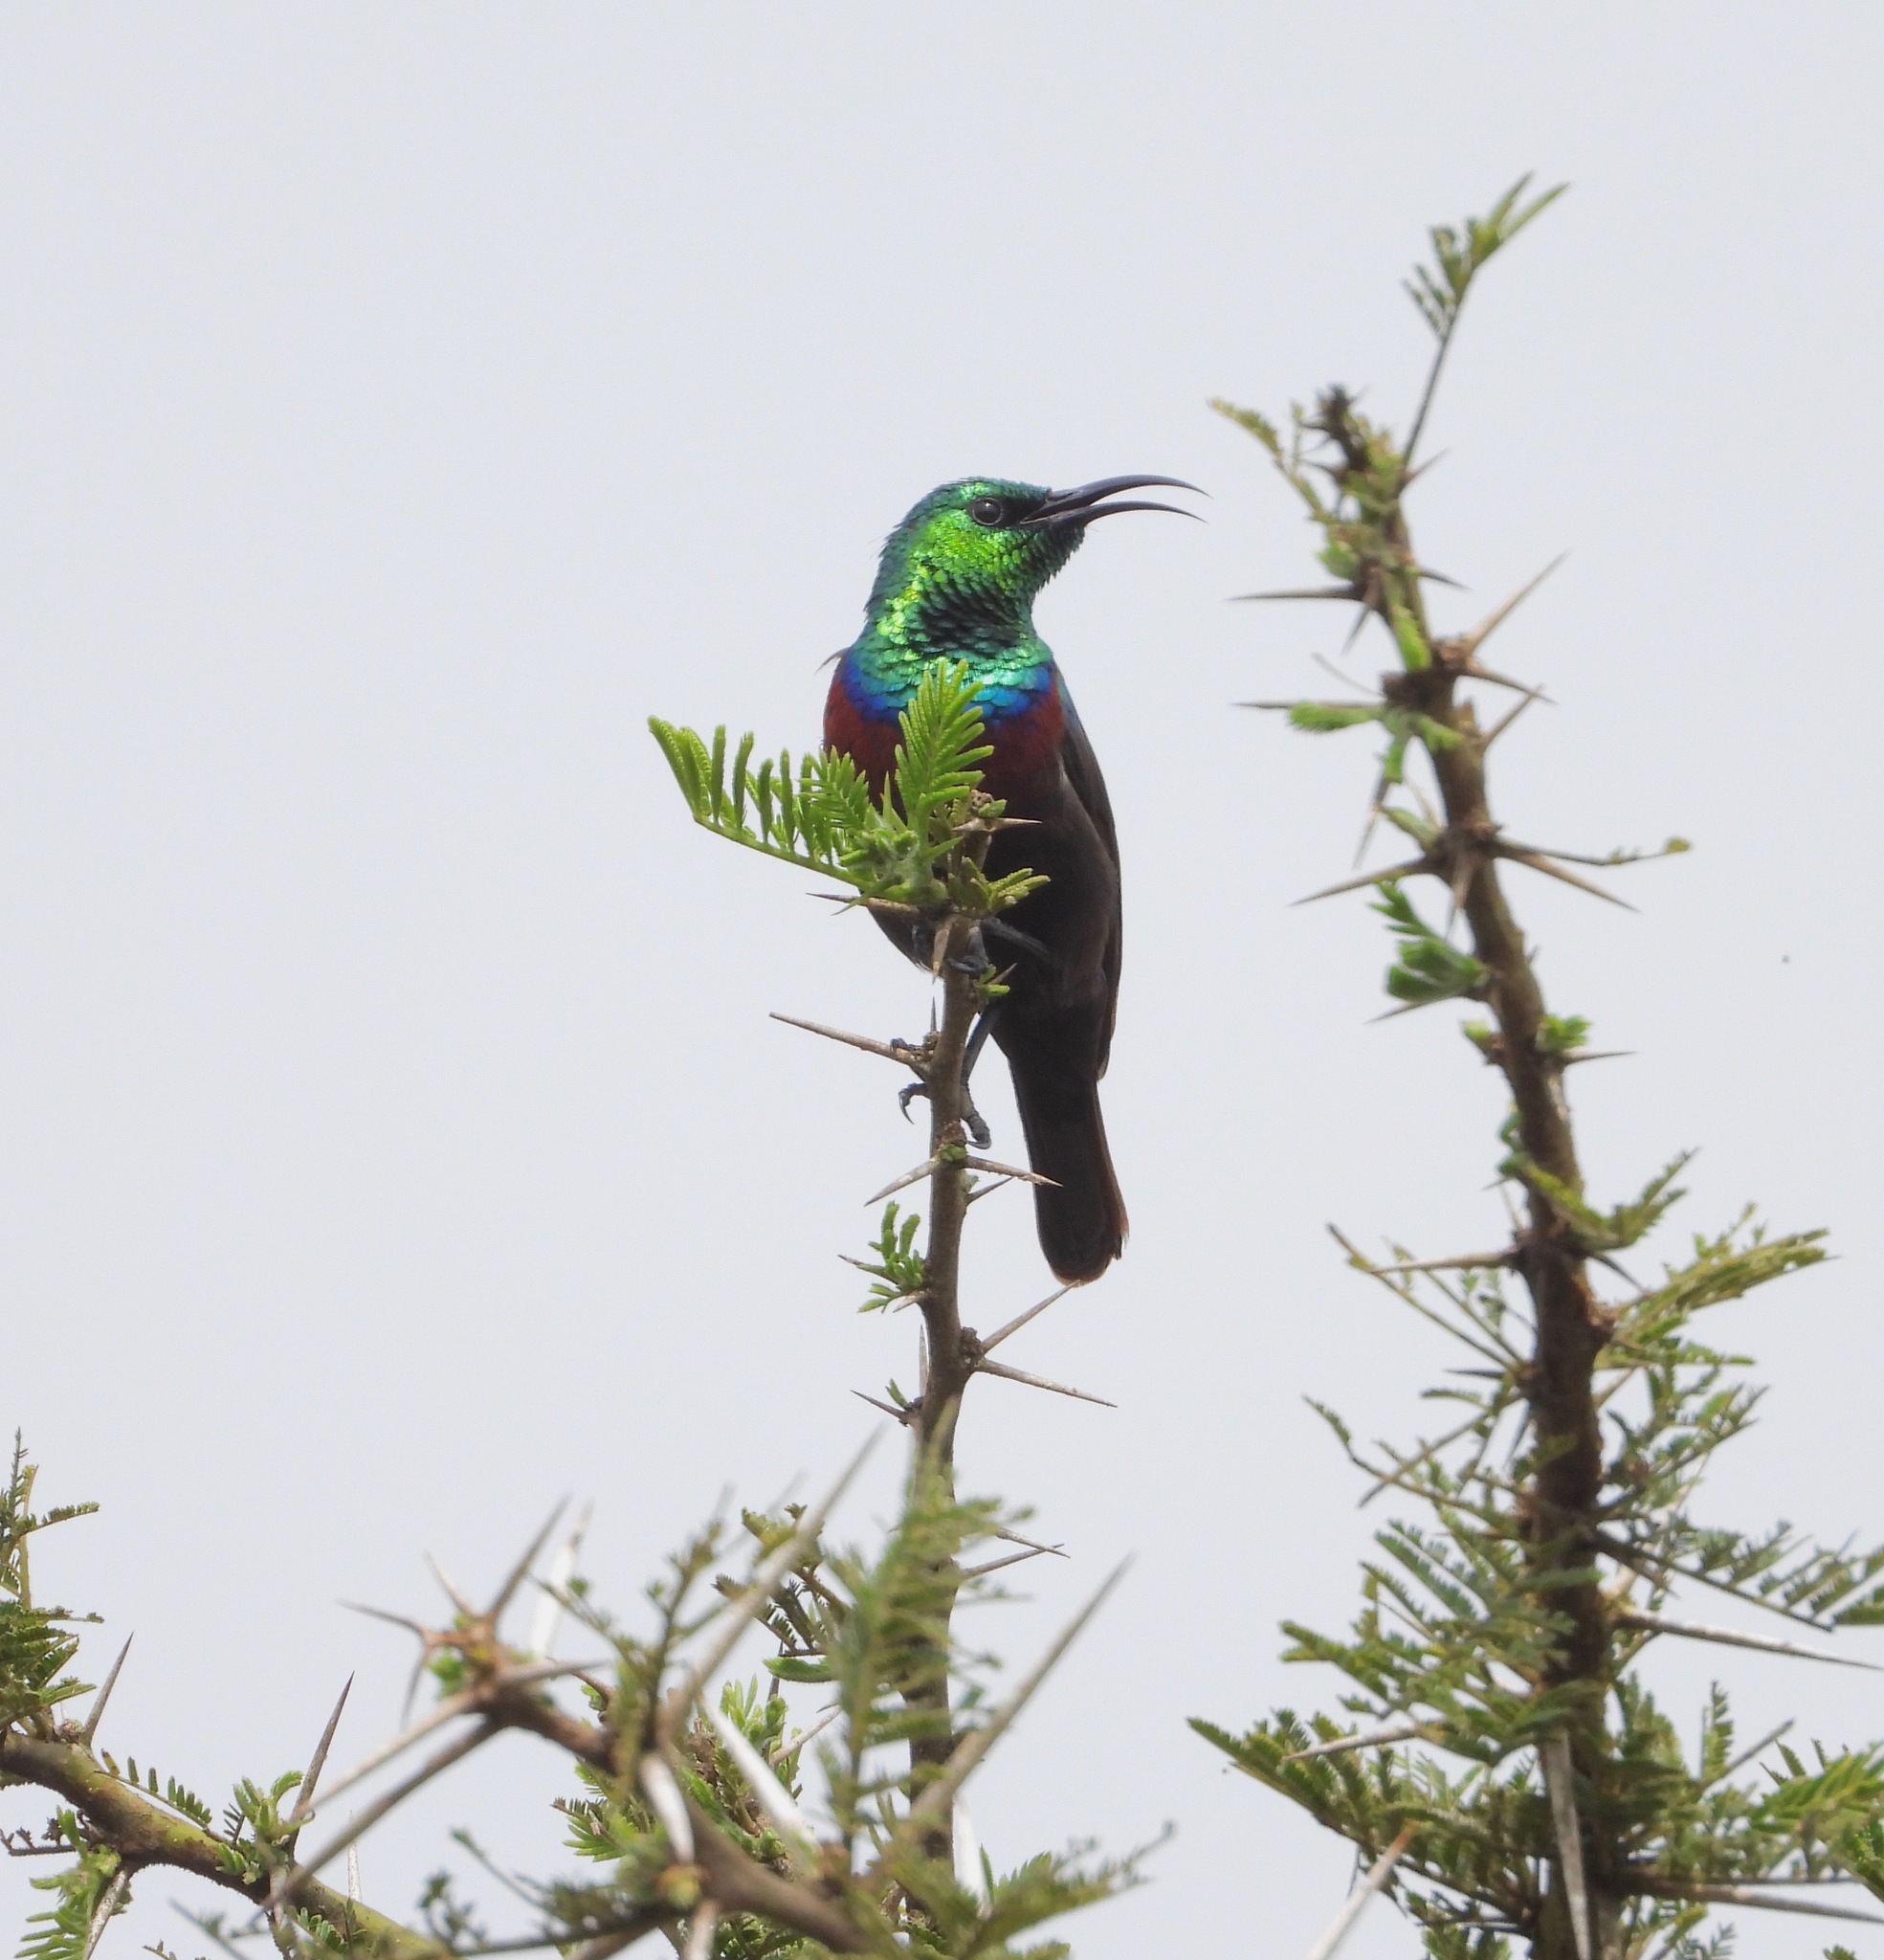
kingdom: Animalia
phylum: Chordata
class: Aves
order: Passeriformes
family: Nectariniidae
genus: Cinnyris
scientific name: Cinnyris bifasciatus
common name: Purple-banded sunbird
